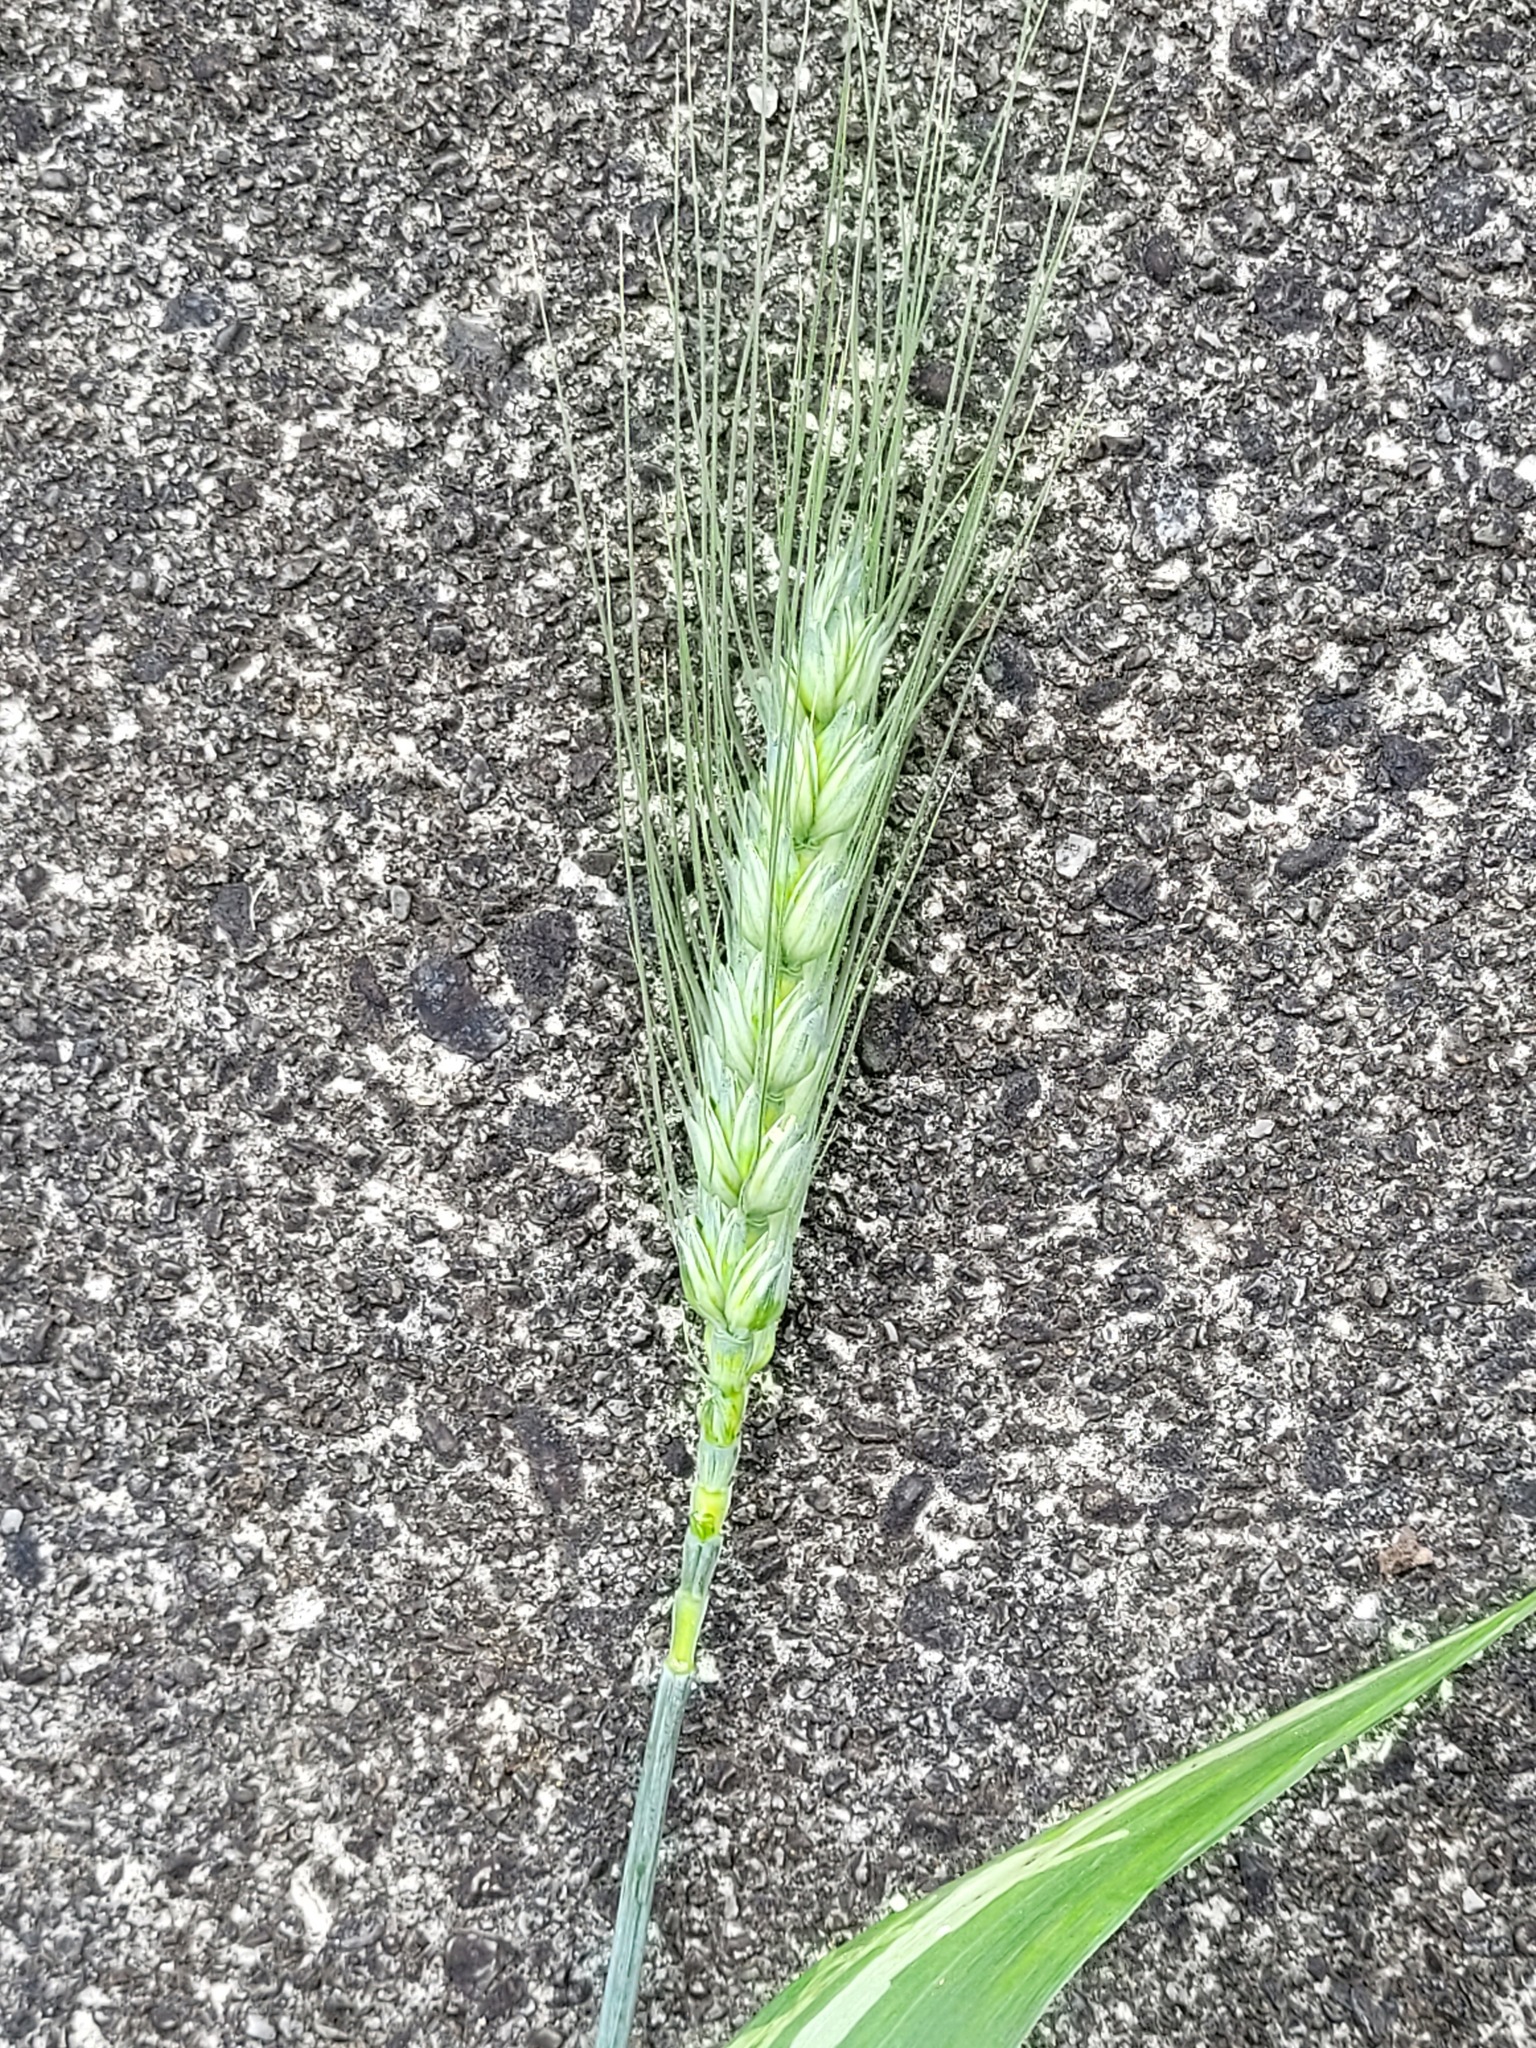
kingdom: Plantae
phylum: Tracheophyta
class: Liliopsida
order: Poales
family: Poaceae
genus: Triticum
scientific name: Triticum aestivum
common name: Common wheat
